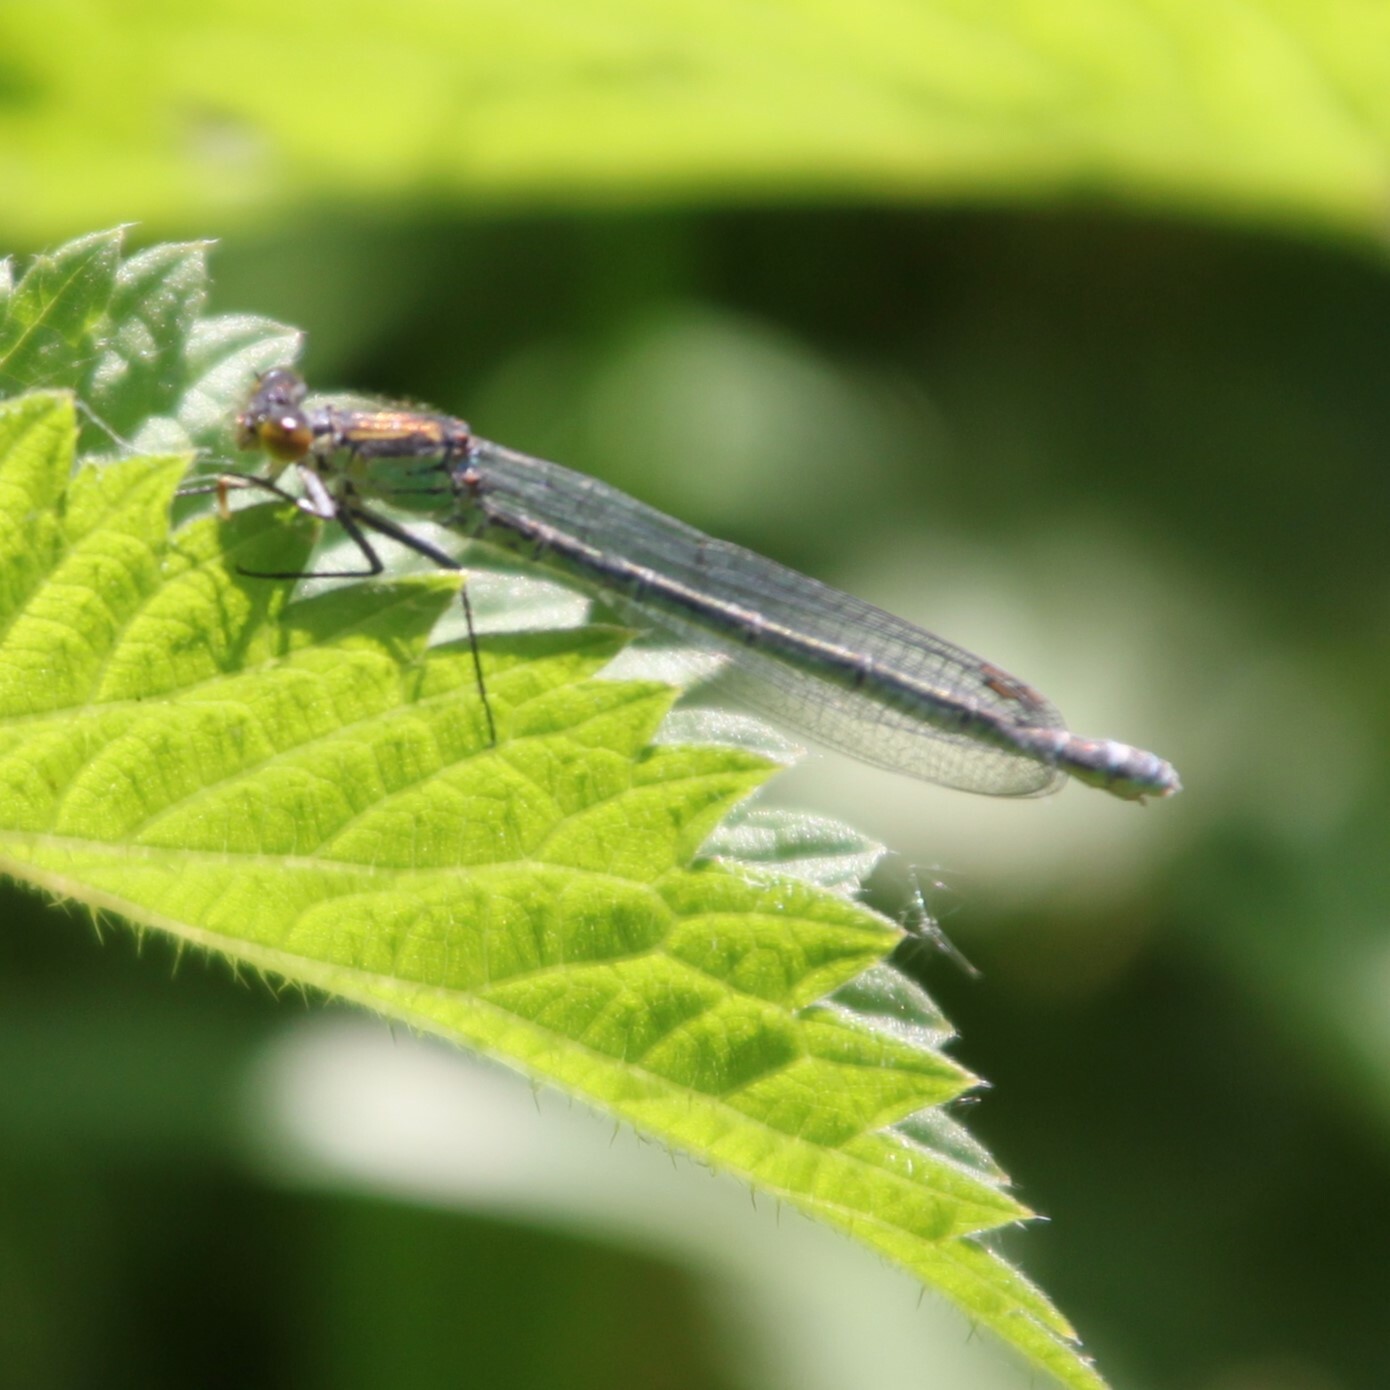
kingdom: Animalia
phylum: Arthropoda
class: Insecta
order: Odonata
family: Coenagrionidae
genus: Erythromma
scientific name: Erythromma najas
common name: Red-eyed damselfly
